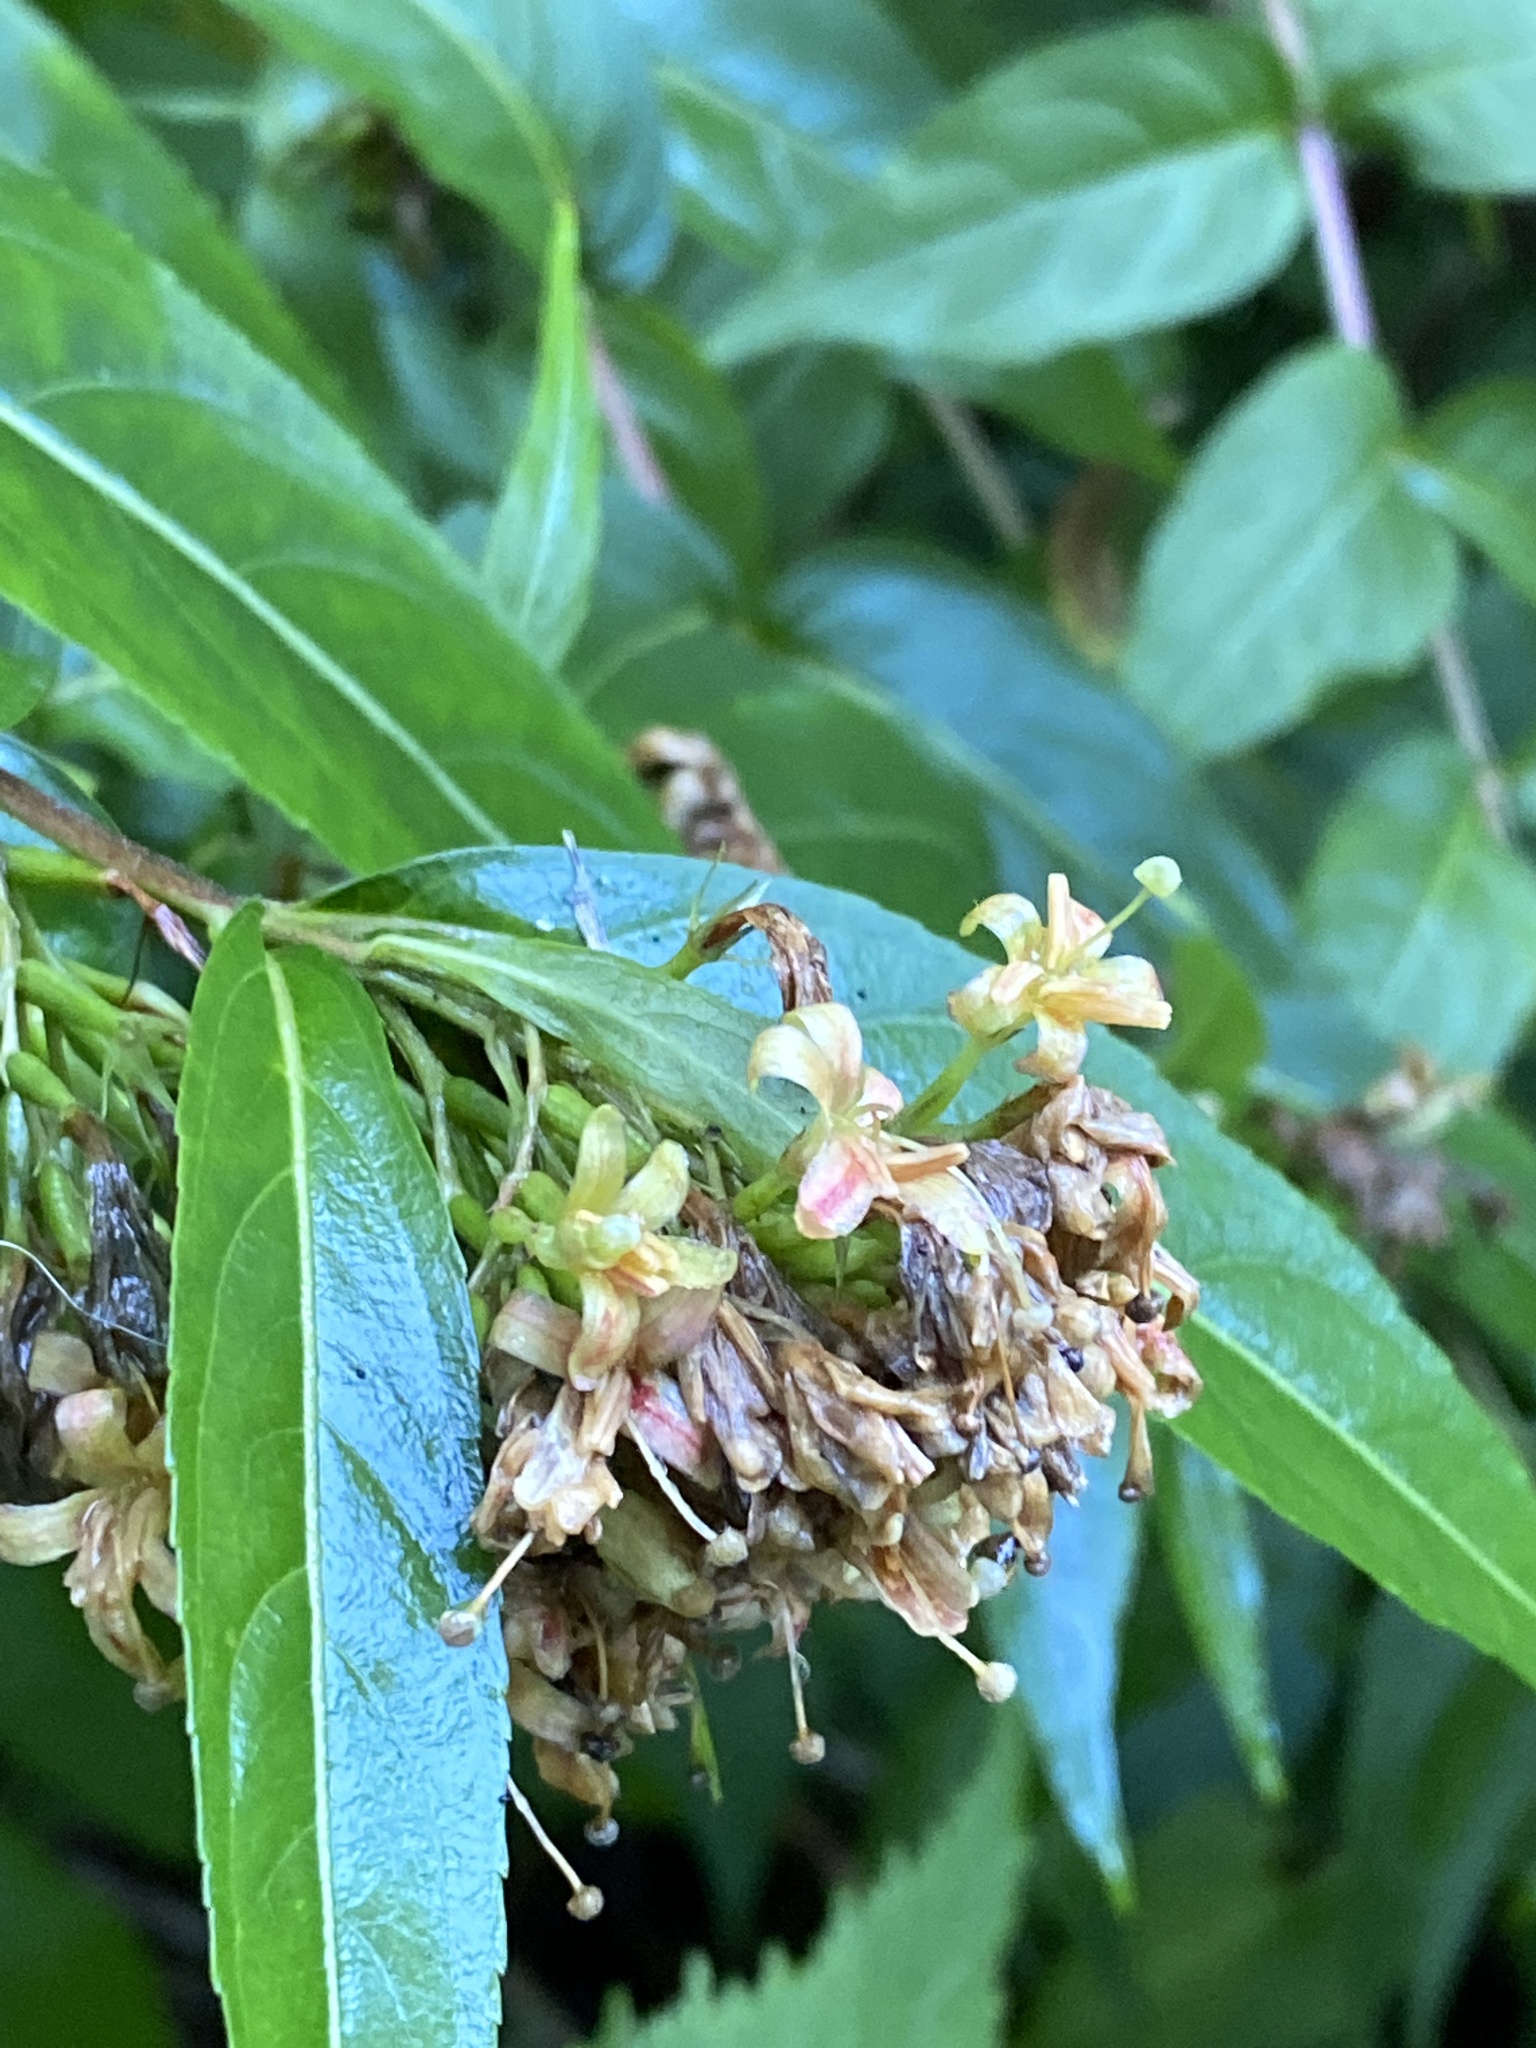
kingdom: Plantae
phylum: Tracheophyta
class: Magnoliopsida
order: Dipsacales
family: Caprifoliaceae
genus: Diervilla
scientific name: Diervilla sessilifolia
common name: Bush-honeysuckle
